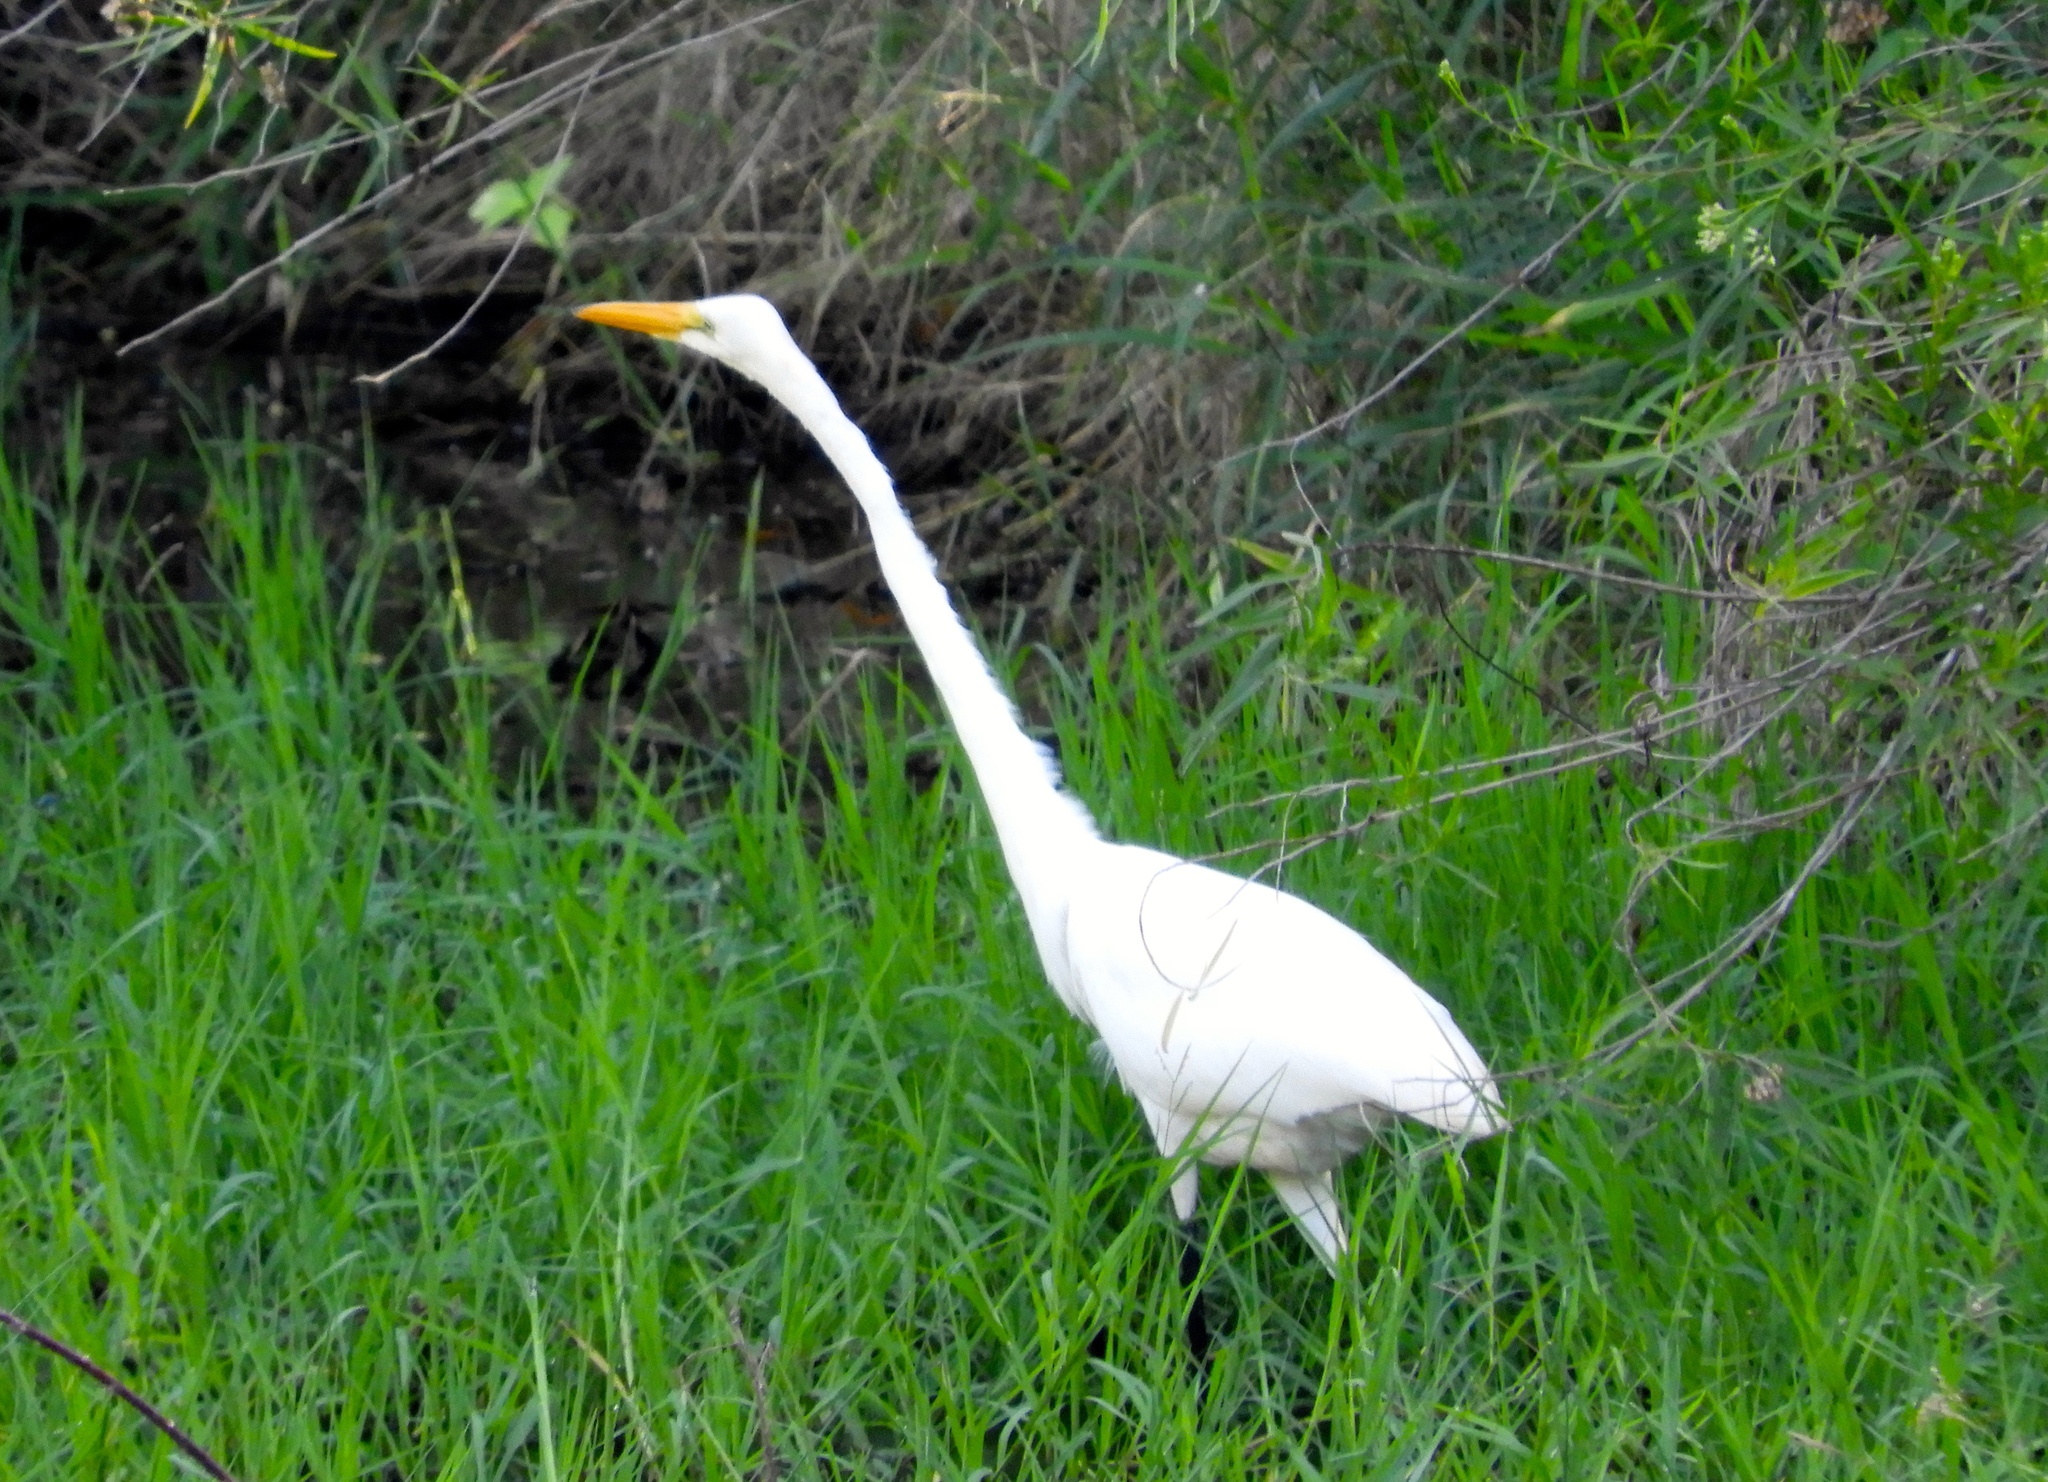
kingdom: Animalia
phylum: Chordata
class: Aves
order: Pelecaniformes
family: Ardeidae
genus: Ardea
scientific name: Ardea alba
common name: Great egret
